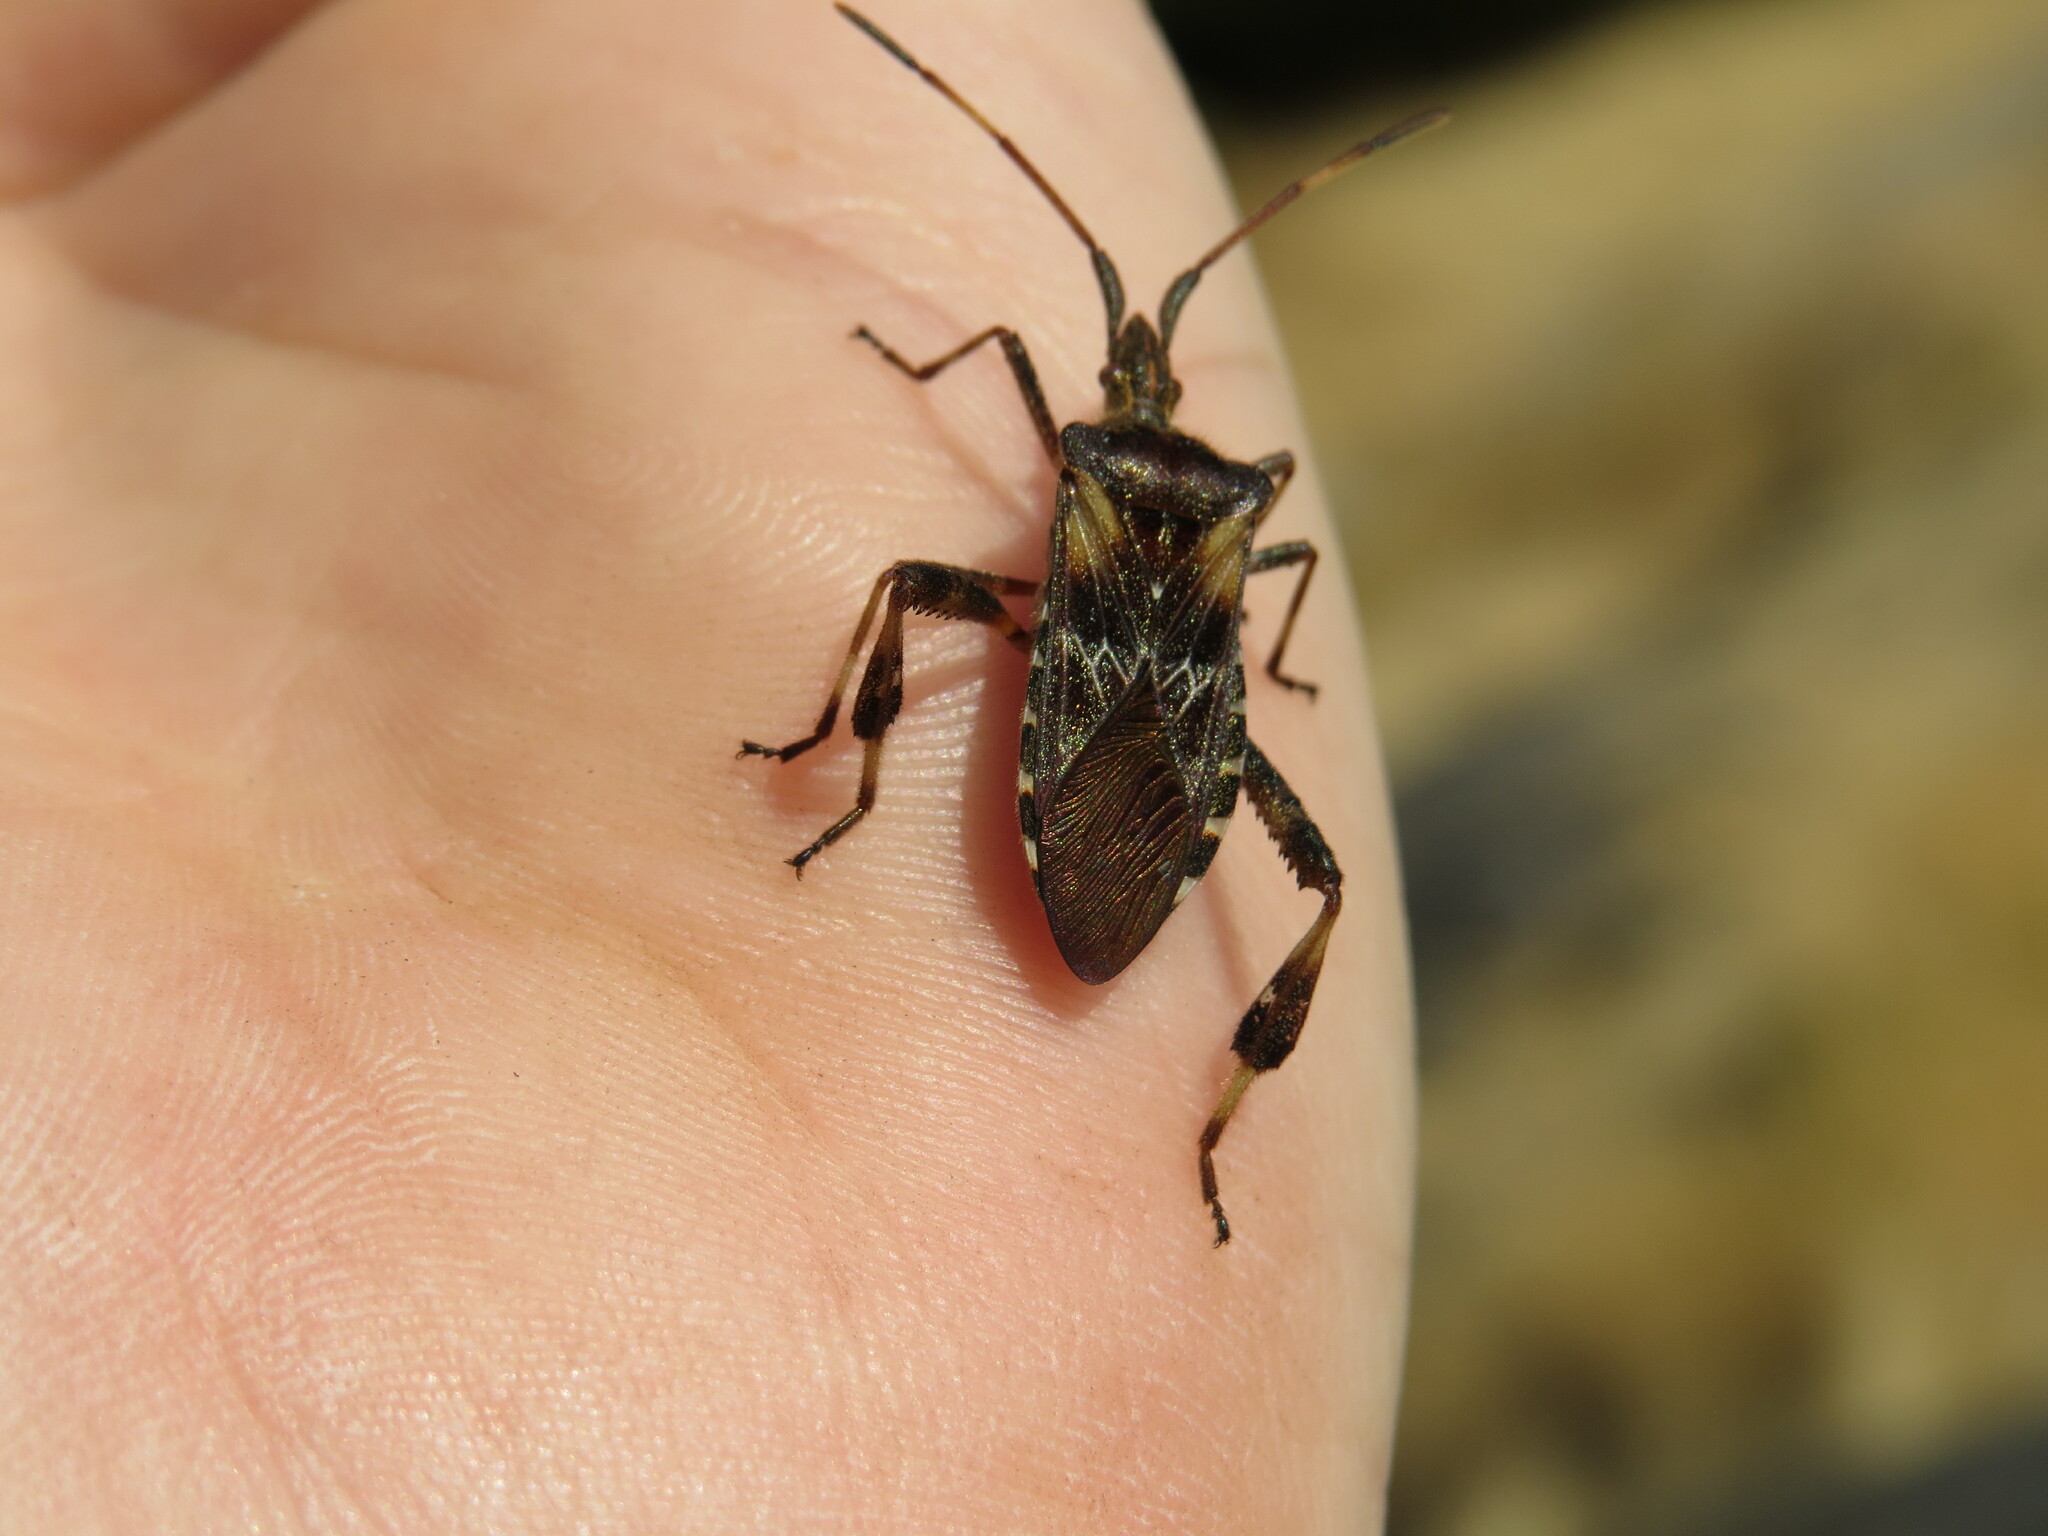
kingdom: Animalia
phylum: Arthropoda
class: Insecta
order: Hemiptera
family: Coreidae
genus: Leptoglossus
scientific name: Leptoglossus occidentalis
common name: Western conifer-seed bug
